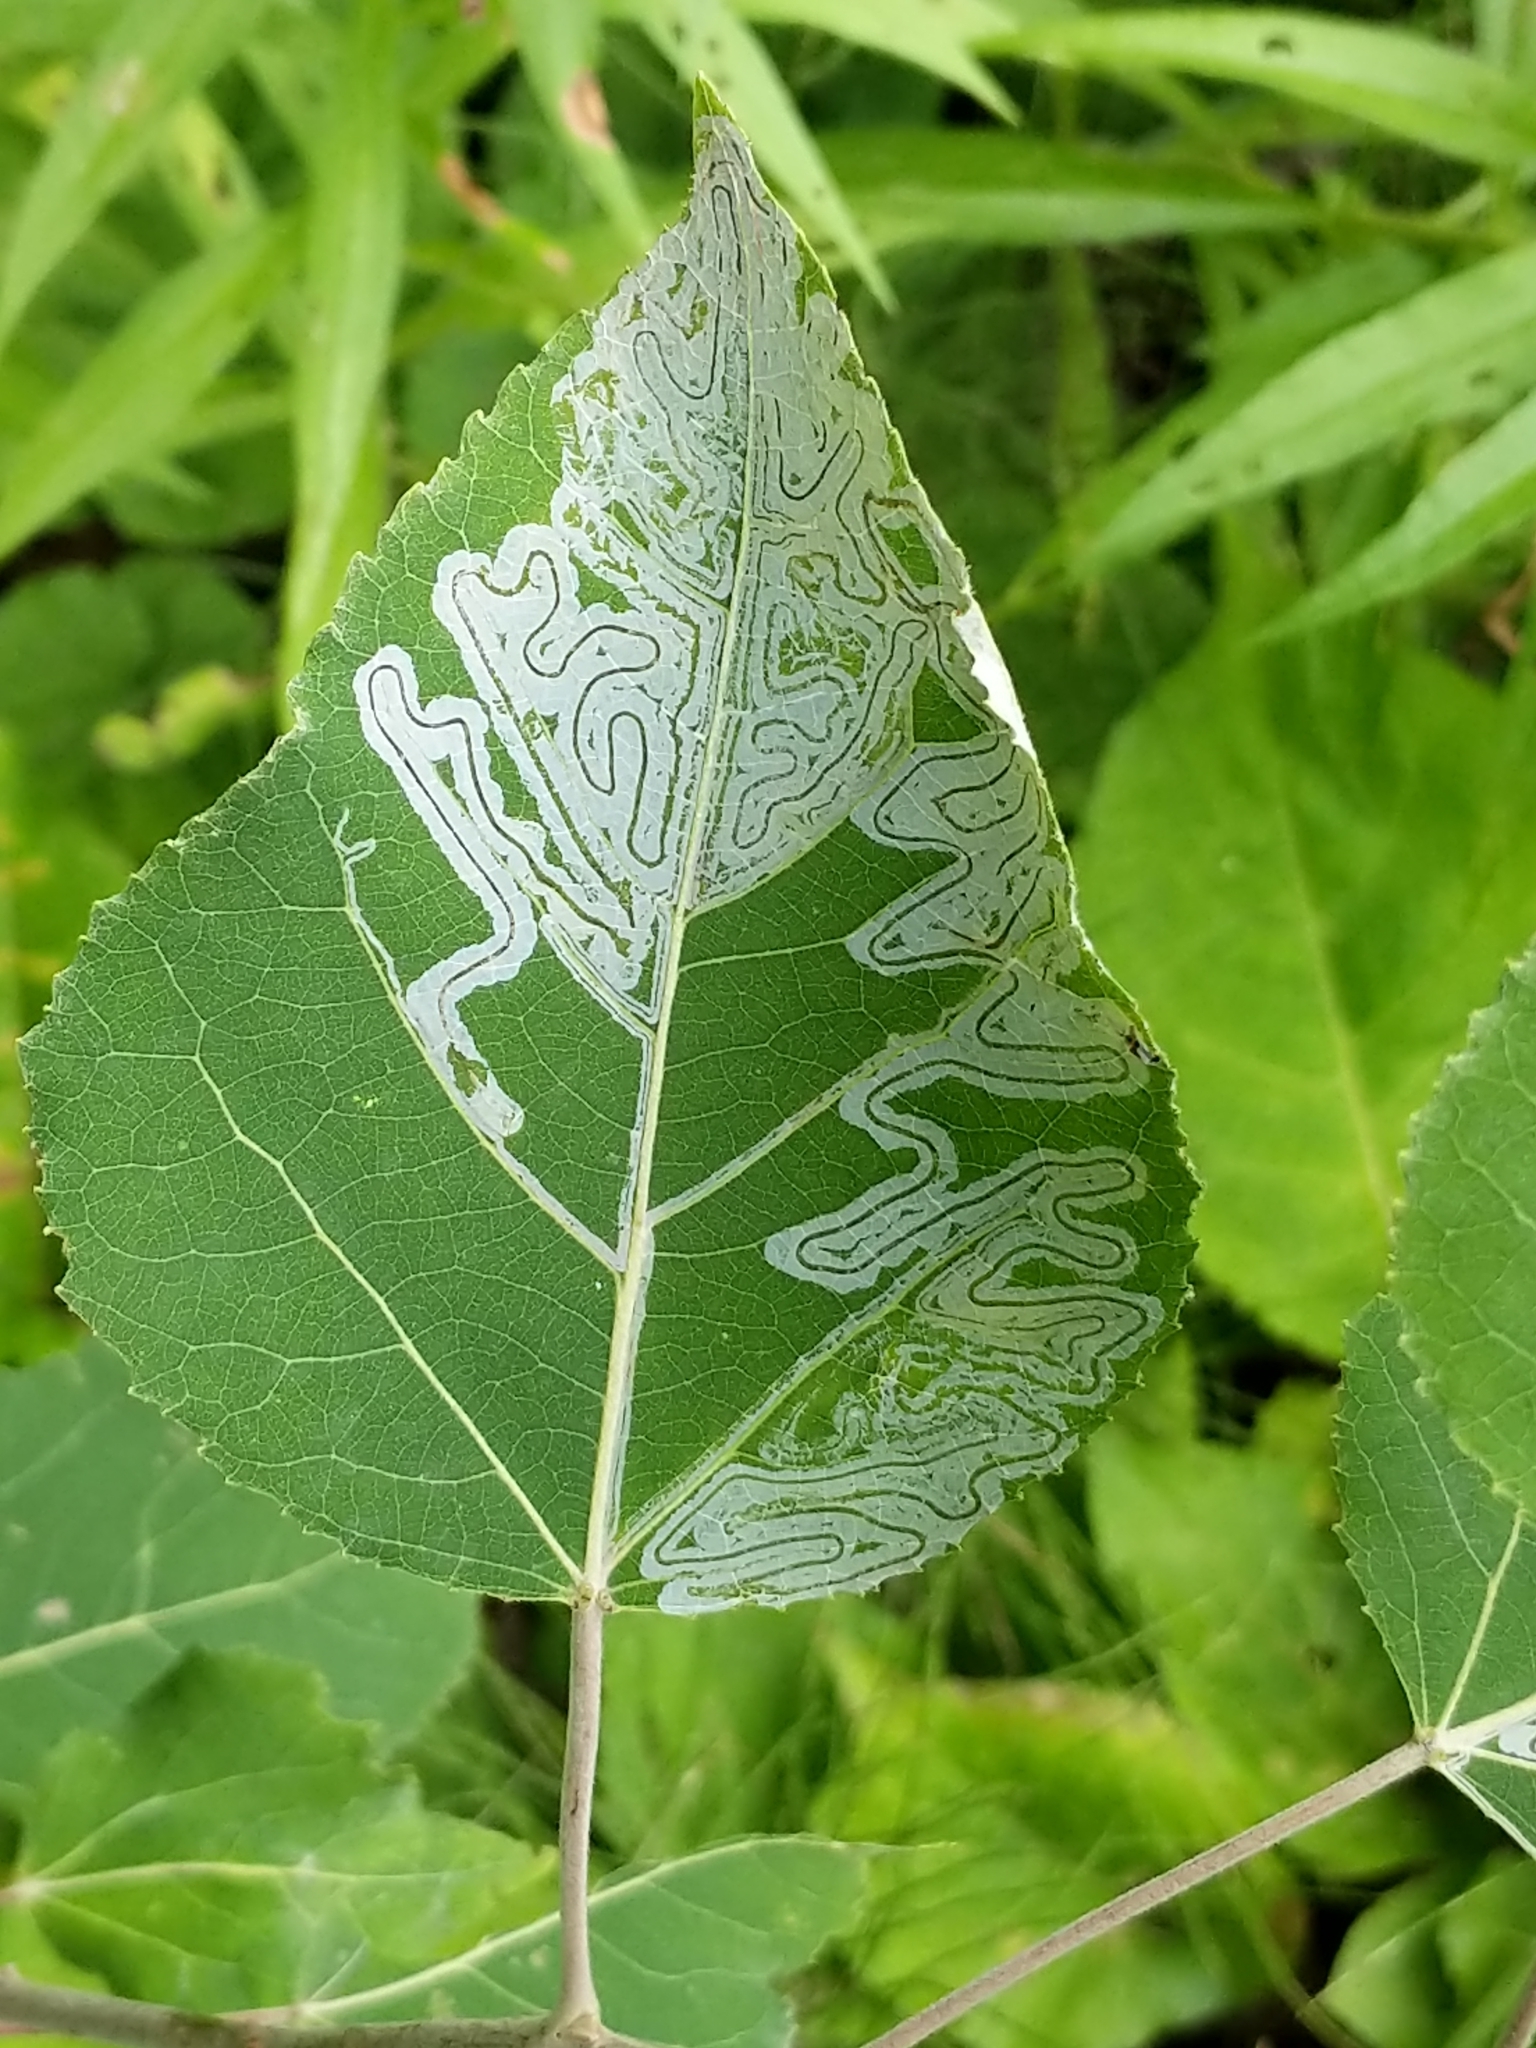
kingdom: Animalia
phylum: Arthropoda
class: Insecta
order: Lepidoptera
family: Gracillariidae
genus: Phyllocnistis
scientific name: Phyllocnistis populiella
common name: Aspen serpentine leafminer moth
